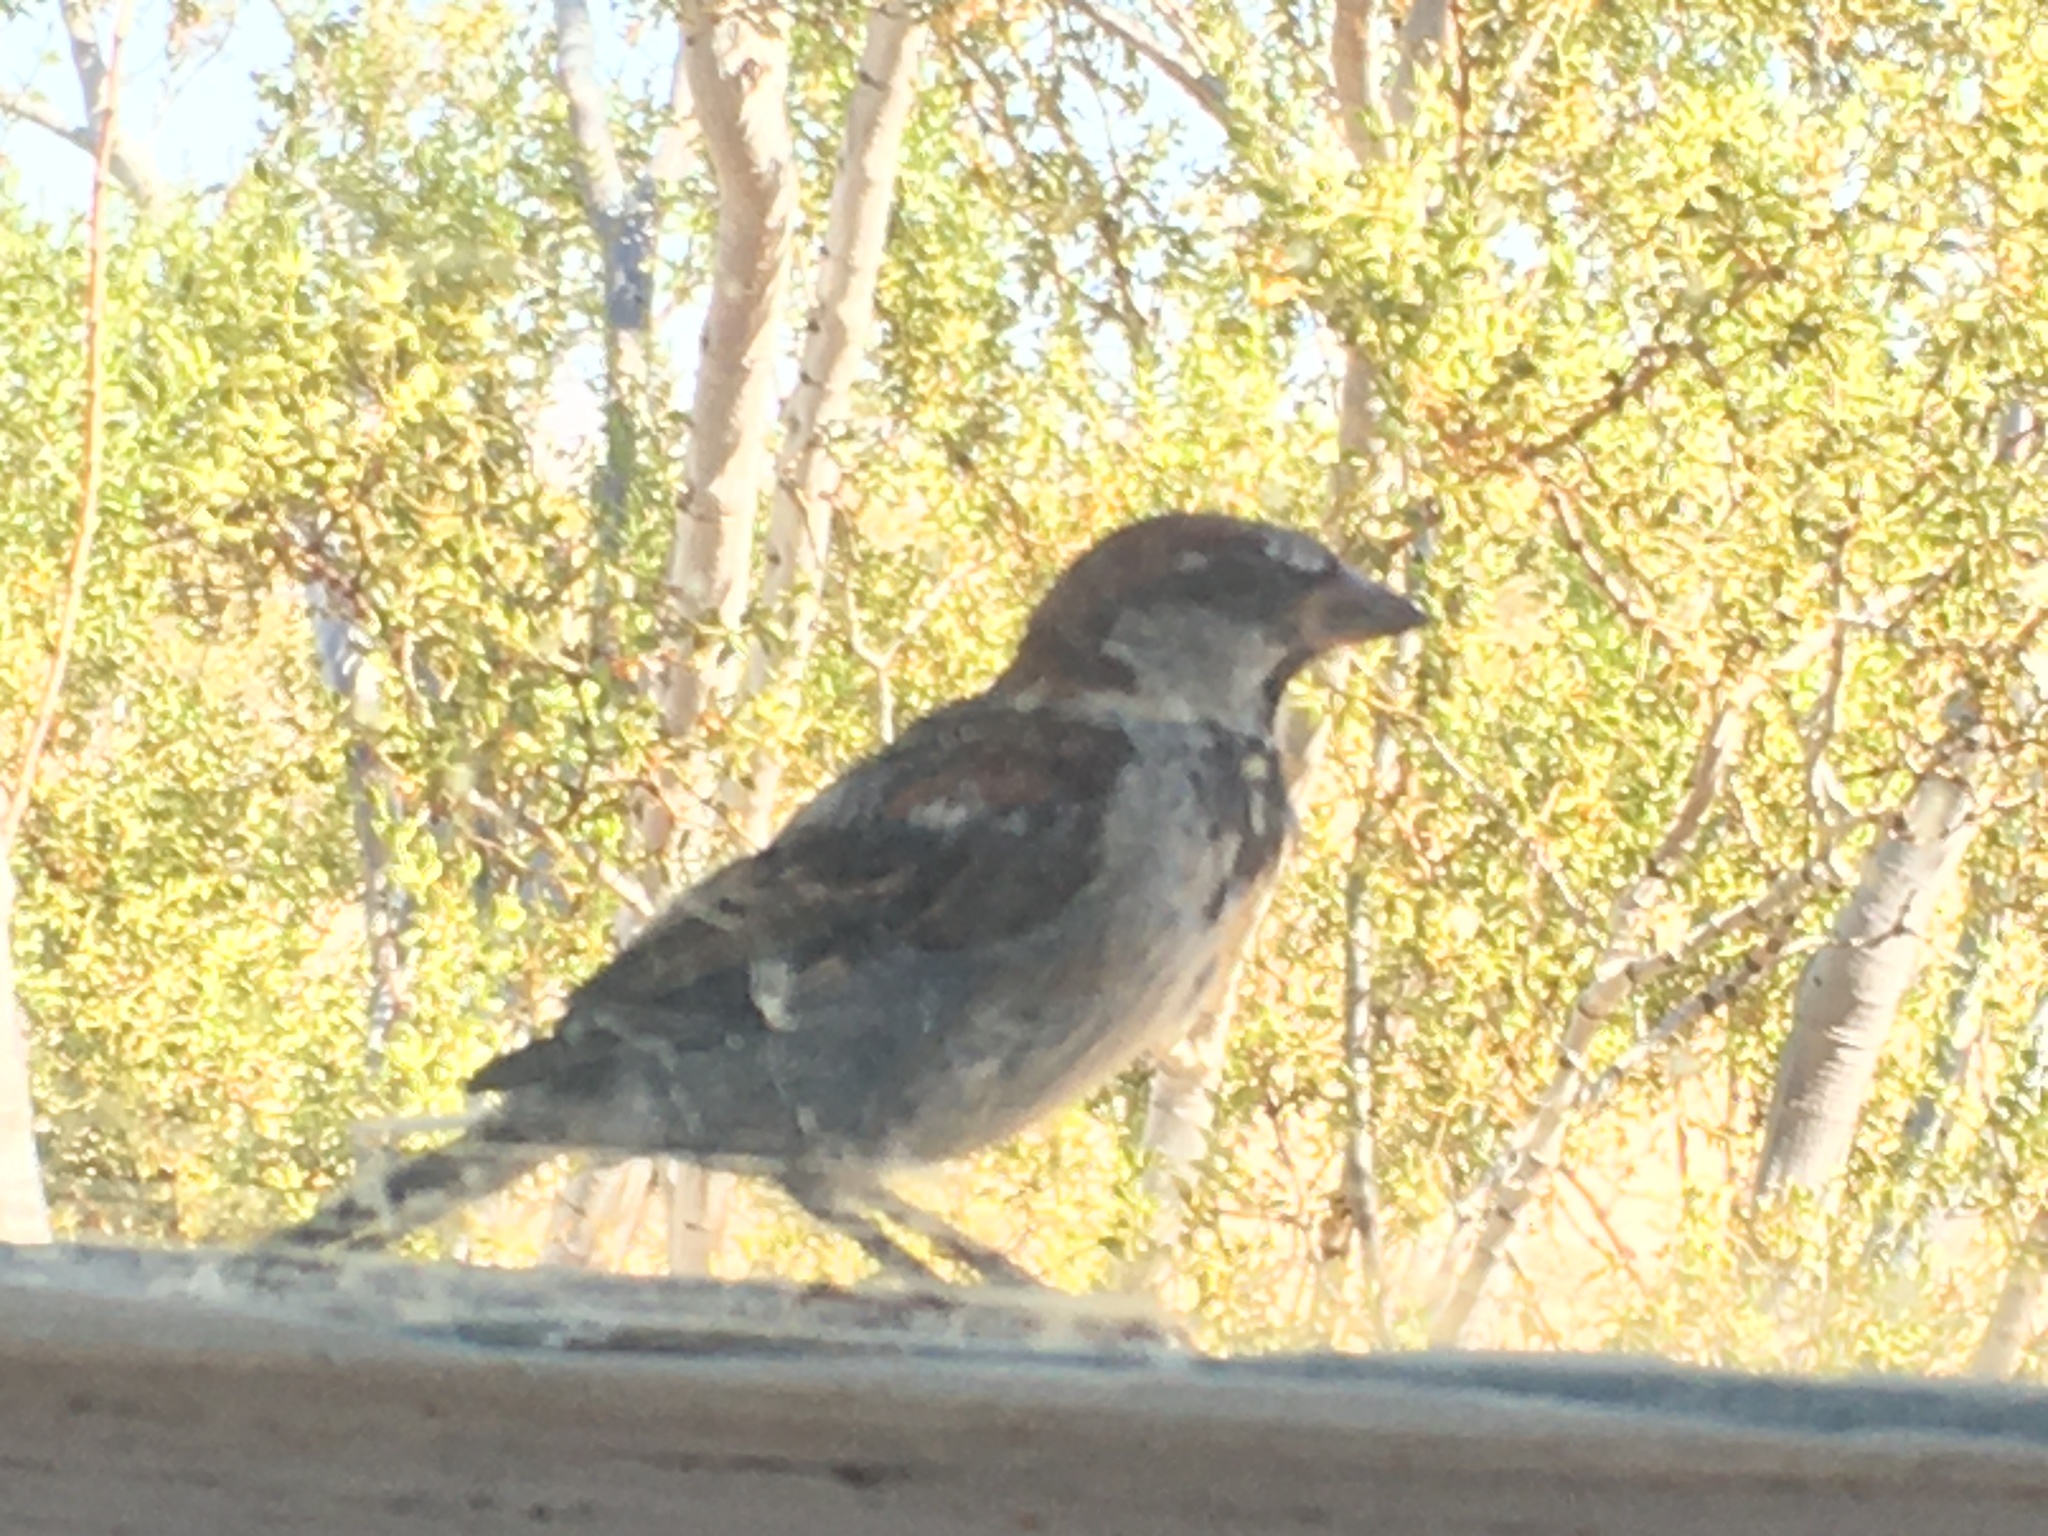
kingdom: Animalia
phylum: Chordata
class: Aves
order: Passeriformes
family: Passeridae
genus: Passer
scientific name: Passer domesticus
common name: House sparrow
